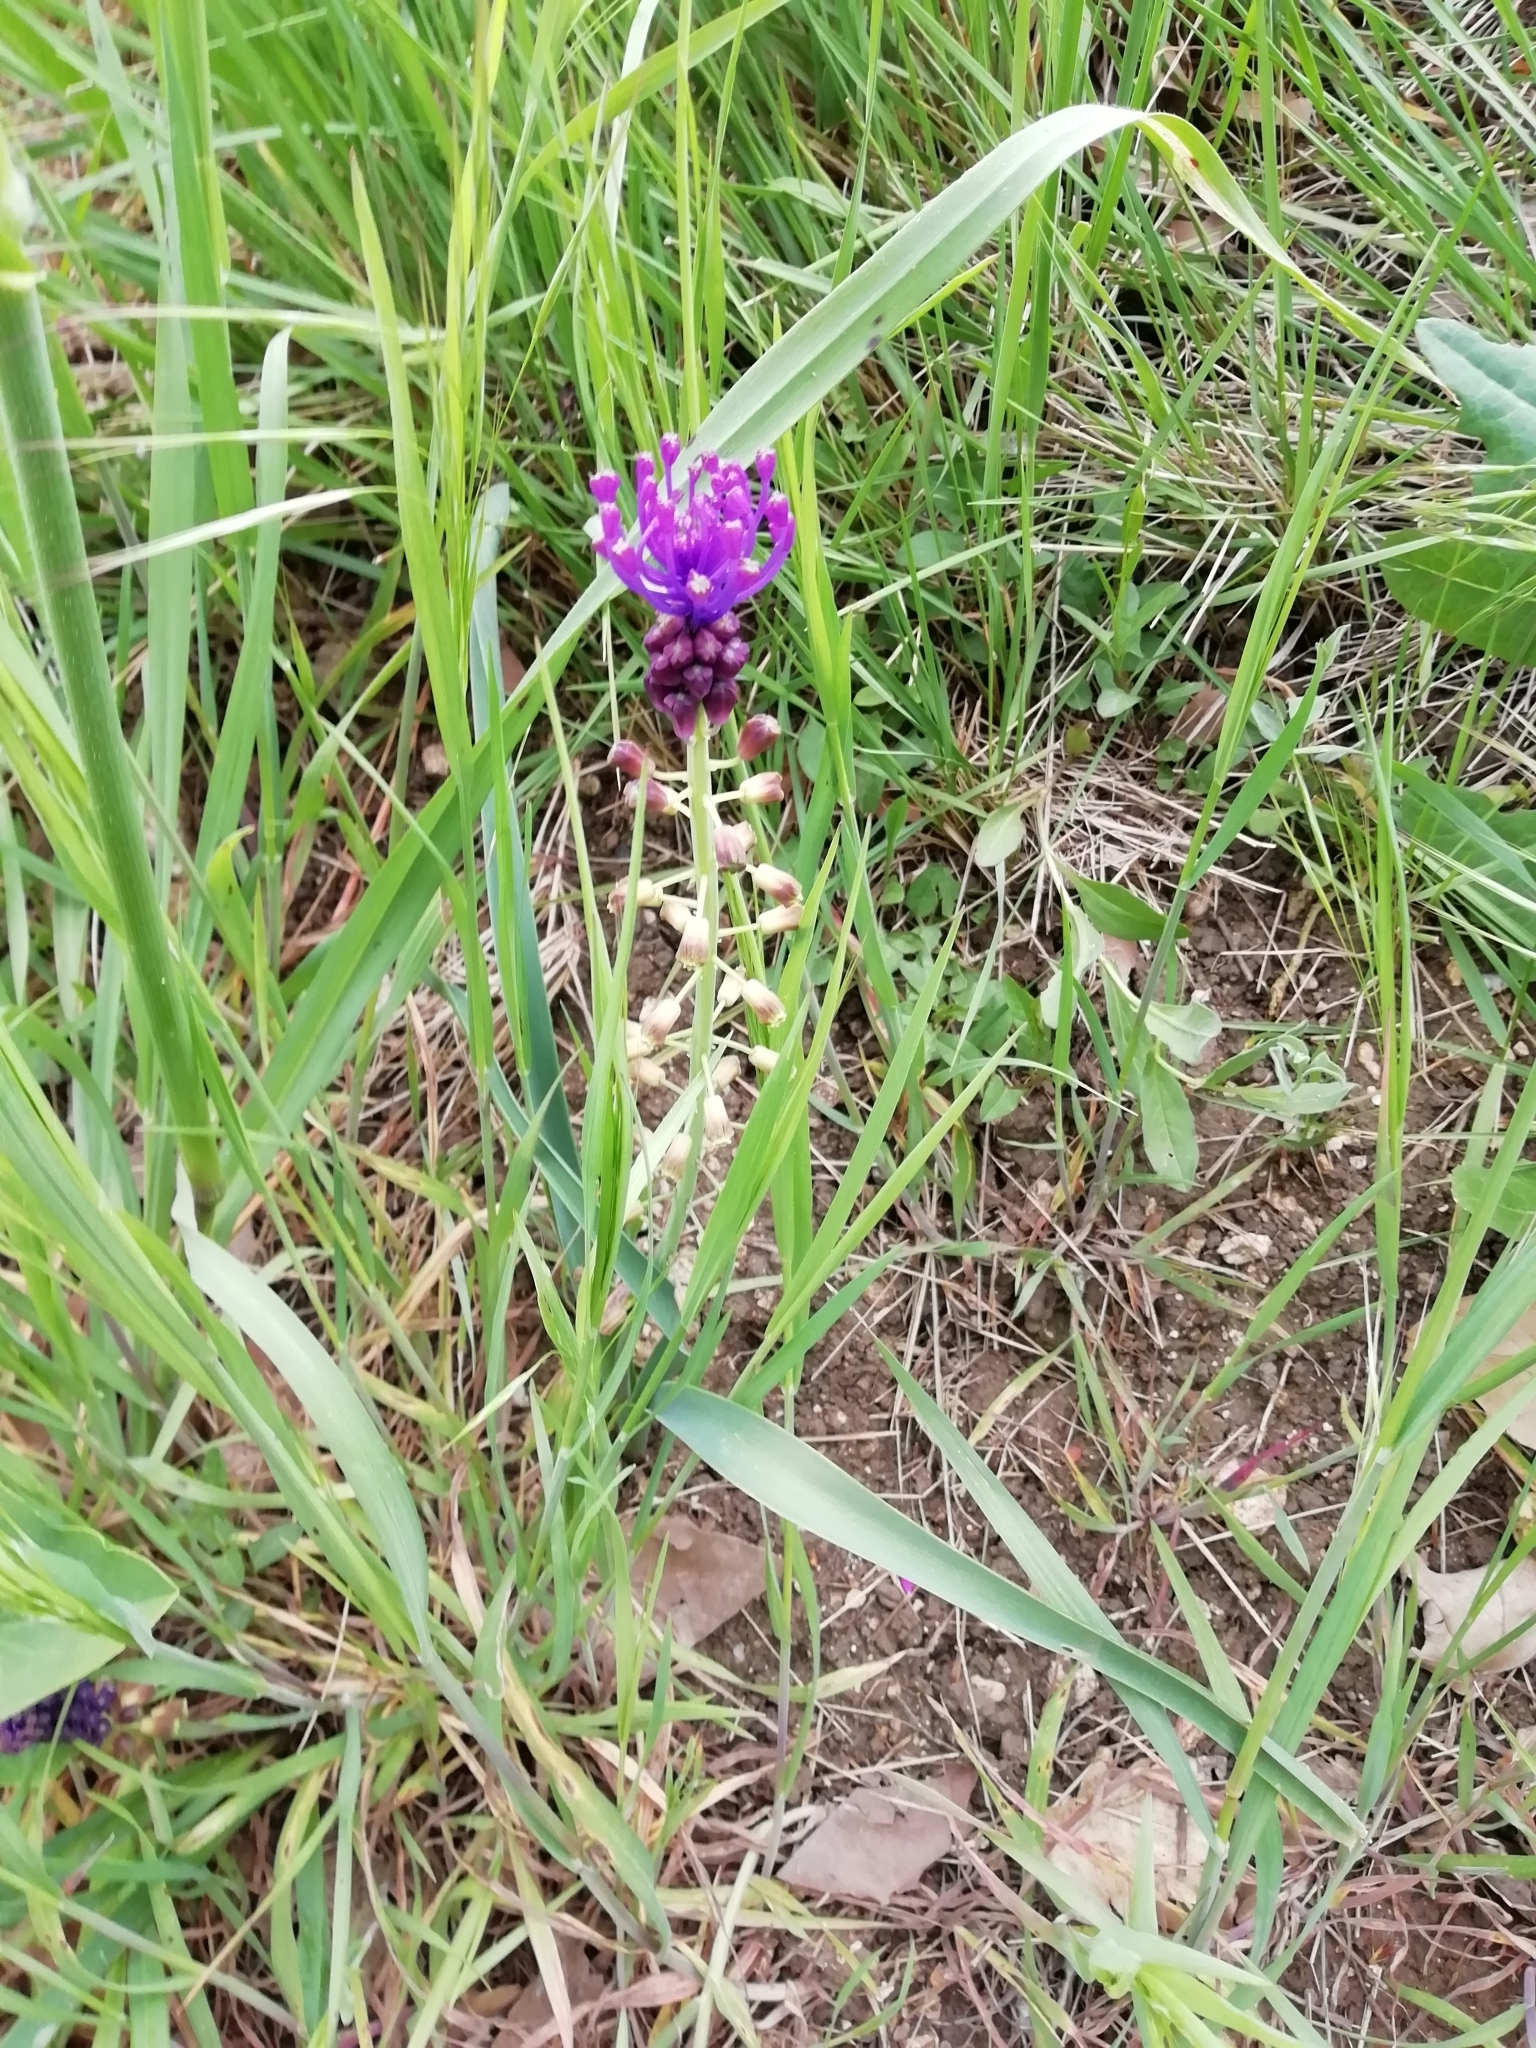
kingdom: Plantae
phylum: Tracheophyta
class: Liliopsida
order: Asparagales
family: Asparagaceae
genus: Muscari
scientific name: Muscari comosum
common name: Tassel hyacinth
